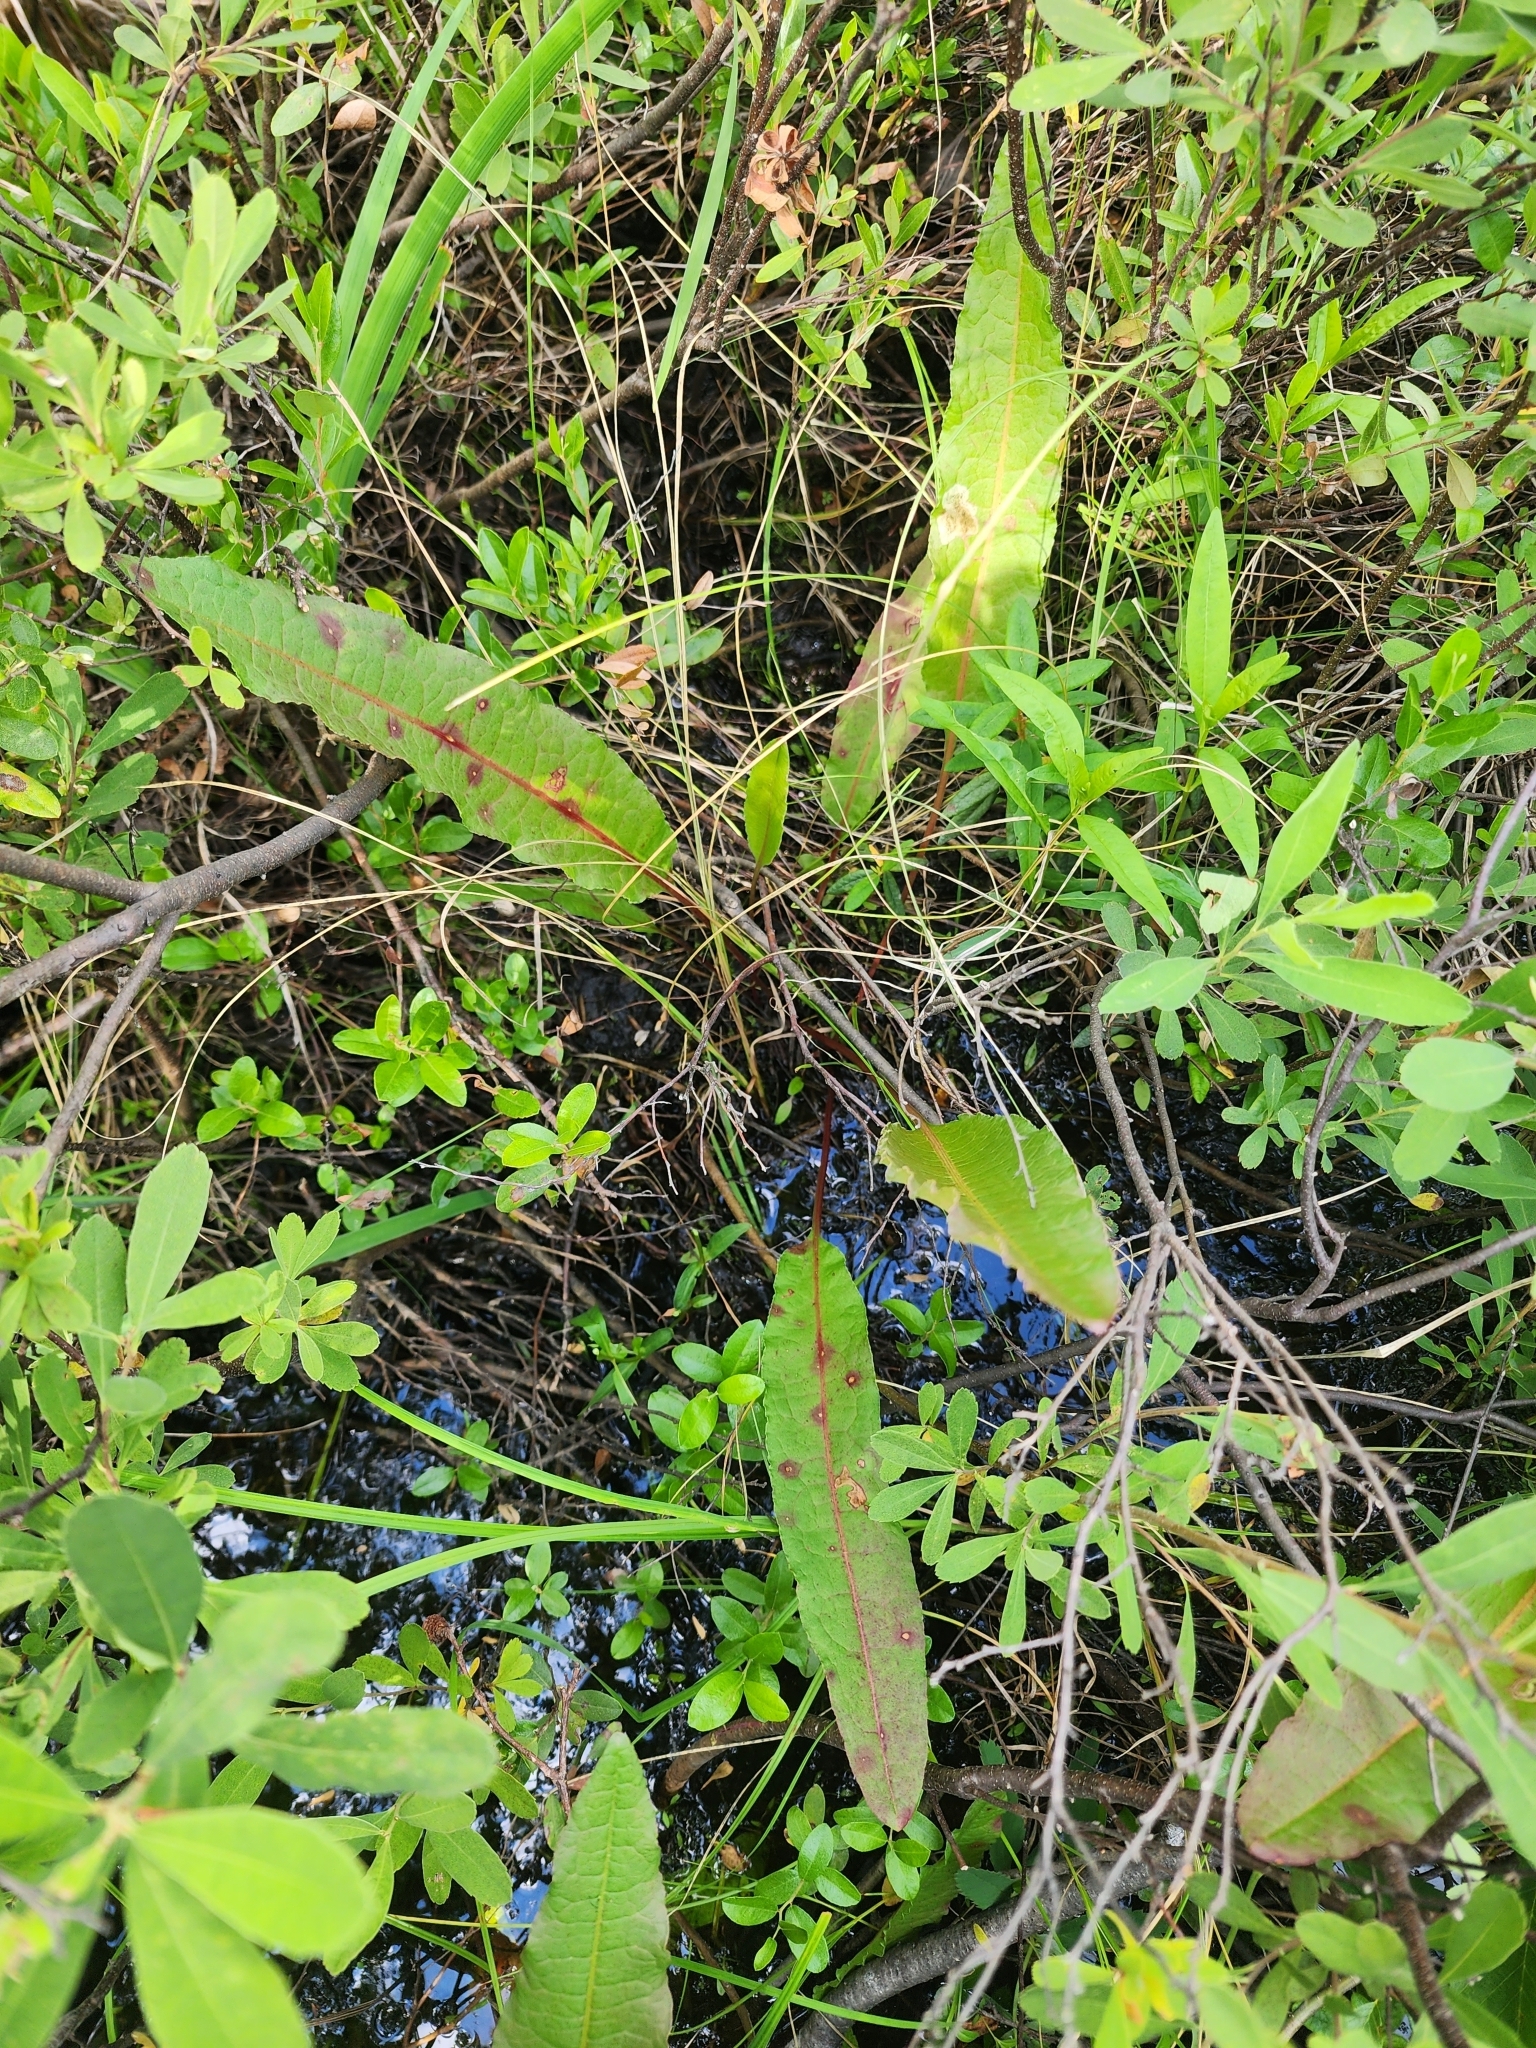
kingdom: Plantae
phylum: Tracheophyta
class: Magnoliopsida
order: Caryophyllales
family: Polygonaceae
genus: Rumex
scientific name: Rumex britannica
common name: British dock
